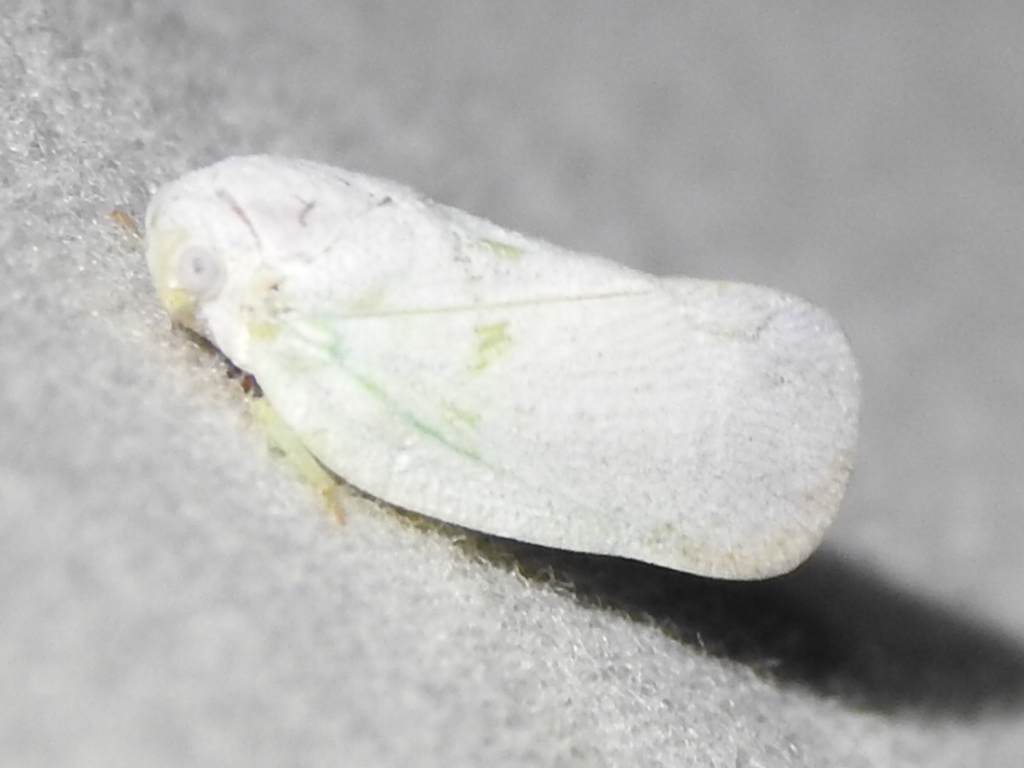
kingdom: Animalia
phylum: Arthropoda
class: Insecta
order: Hemiptera
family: Flatidae
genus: Flatormenis
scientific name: Flatormenis saucia
